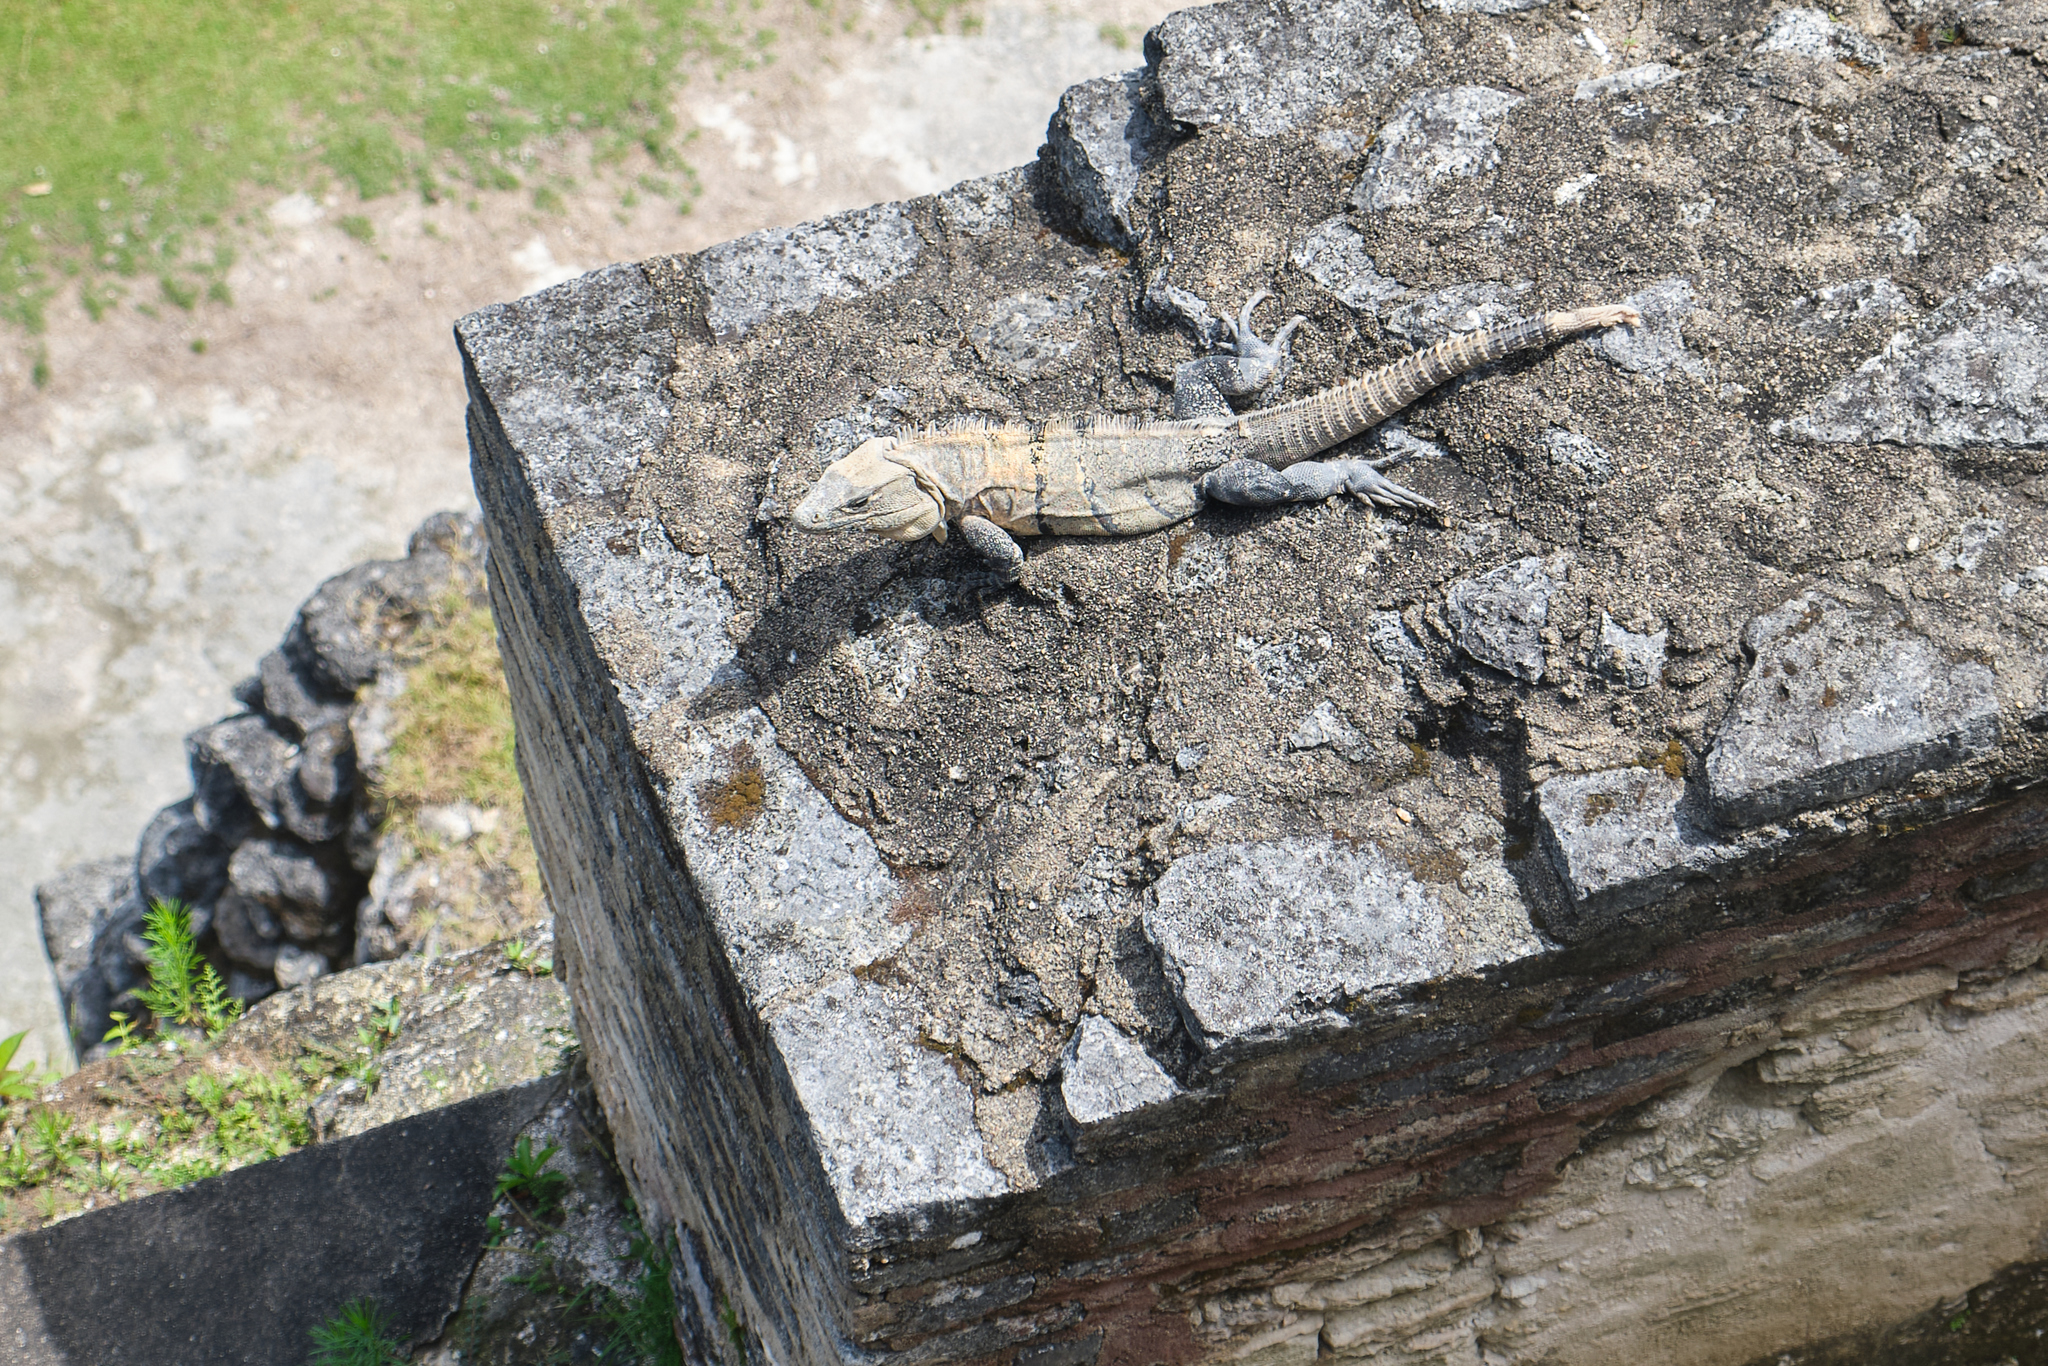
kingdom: Animalia
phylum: Chordata
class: Squamata
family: Iguanidae
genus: Ctenosaura
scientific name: Ctenosaura similis
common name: Black spiny-tailed iguana
